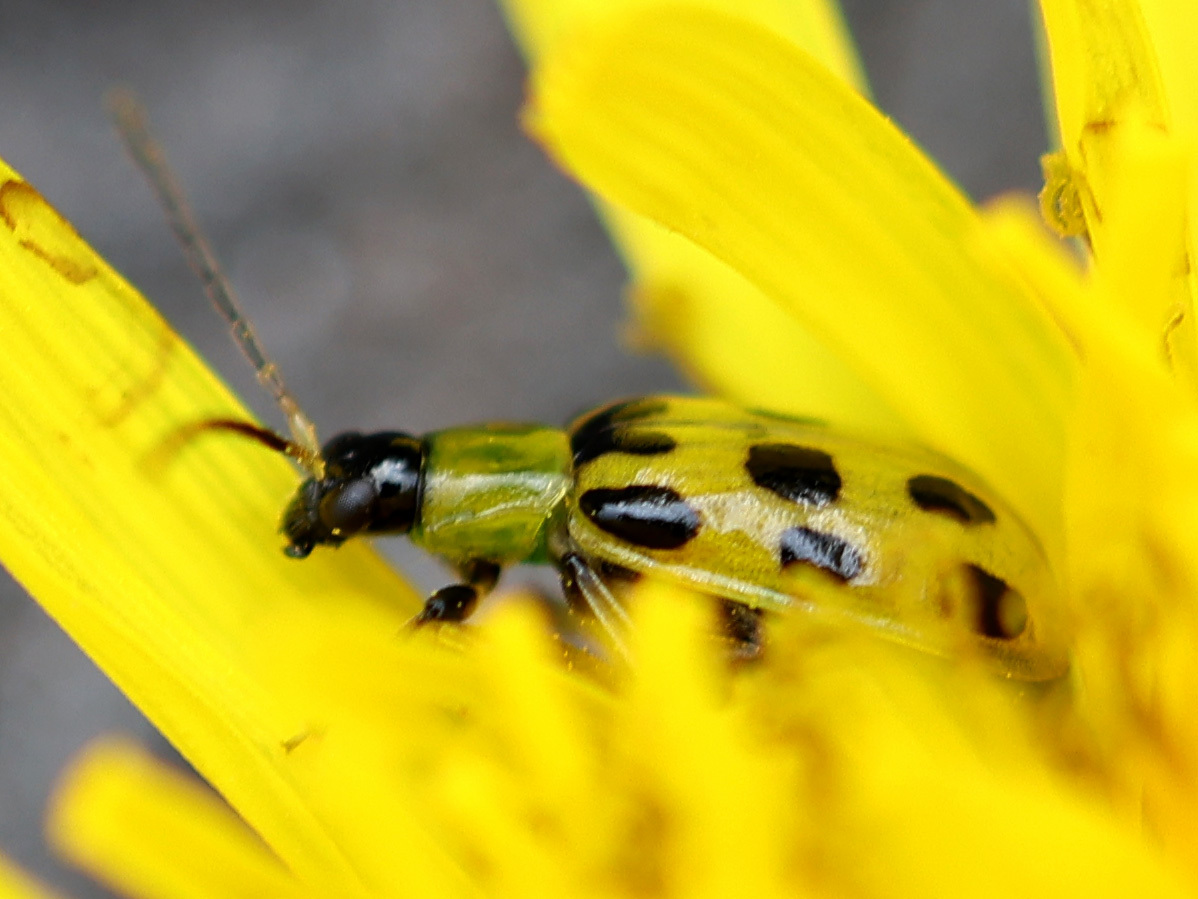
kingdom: Animalia
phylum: Arthropoda
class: Insecta
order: Coleoptera
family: Chrysomelidae
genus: Diabrotica
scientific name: Diabrotica undecimpunctata
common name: Spotted cucumber beetle
